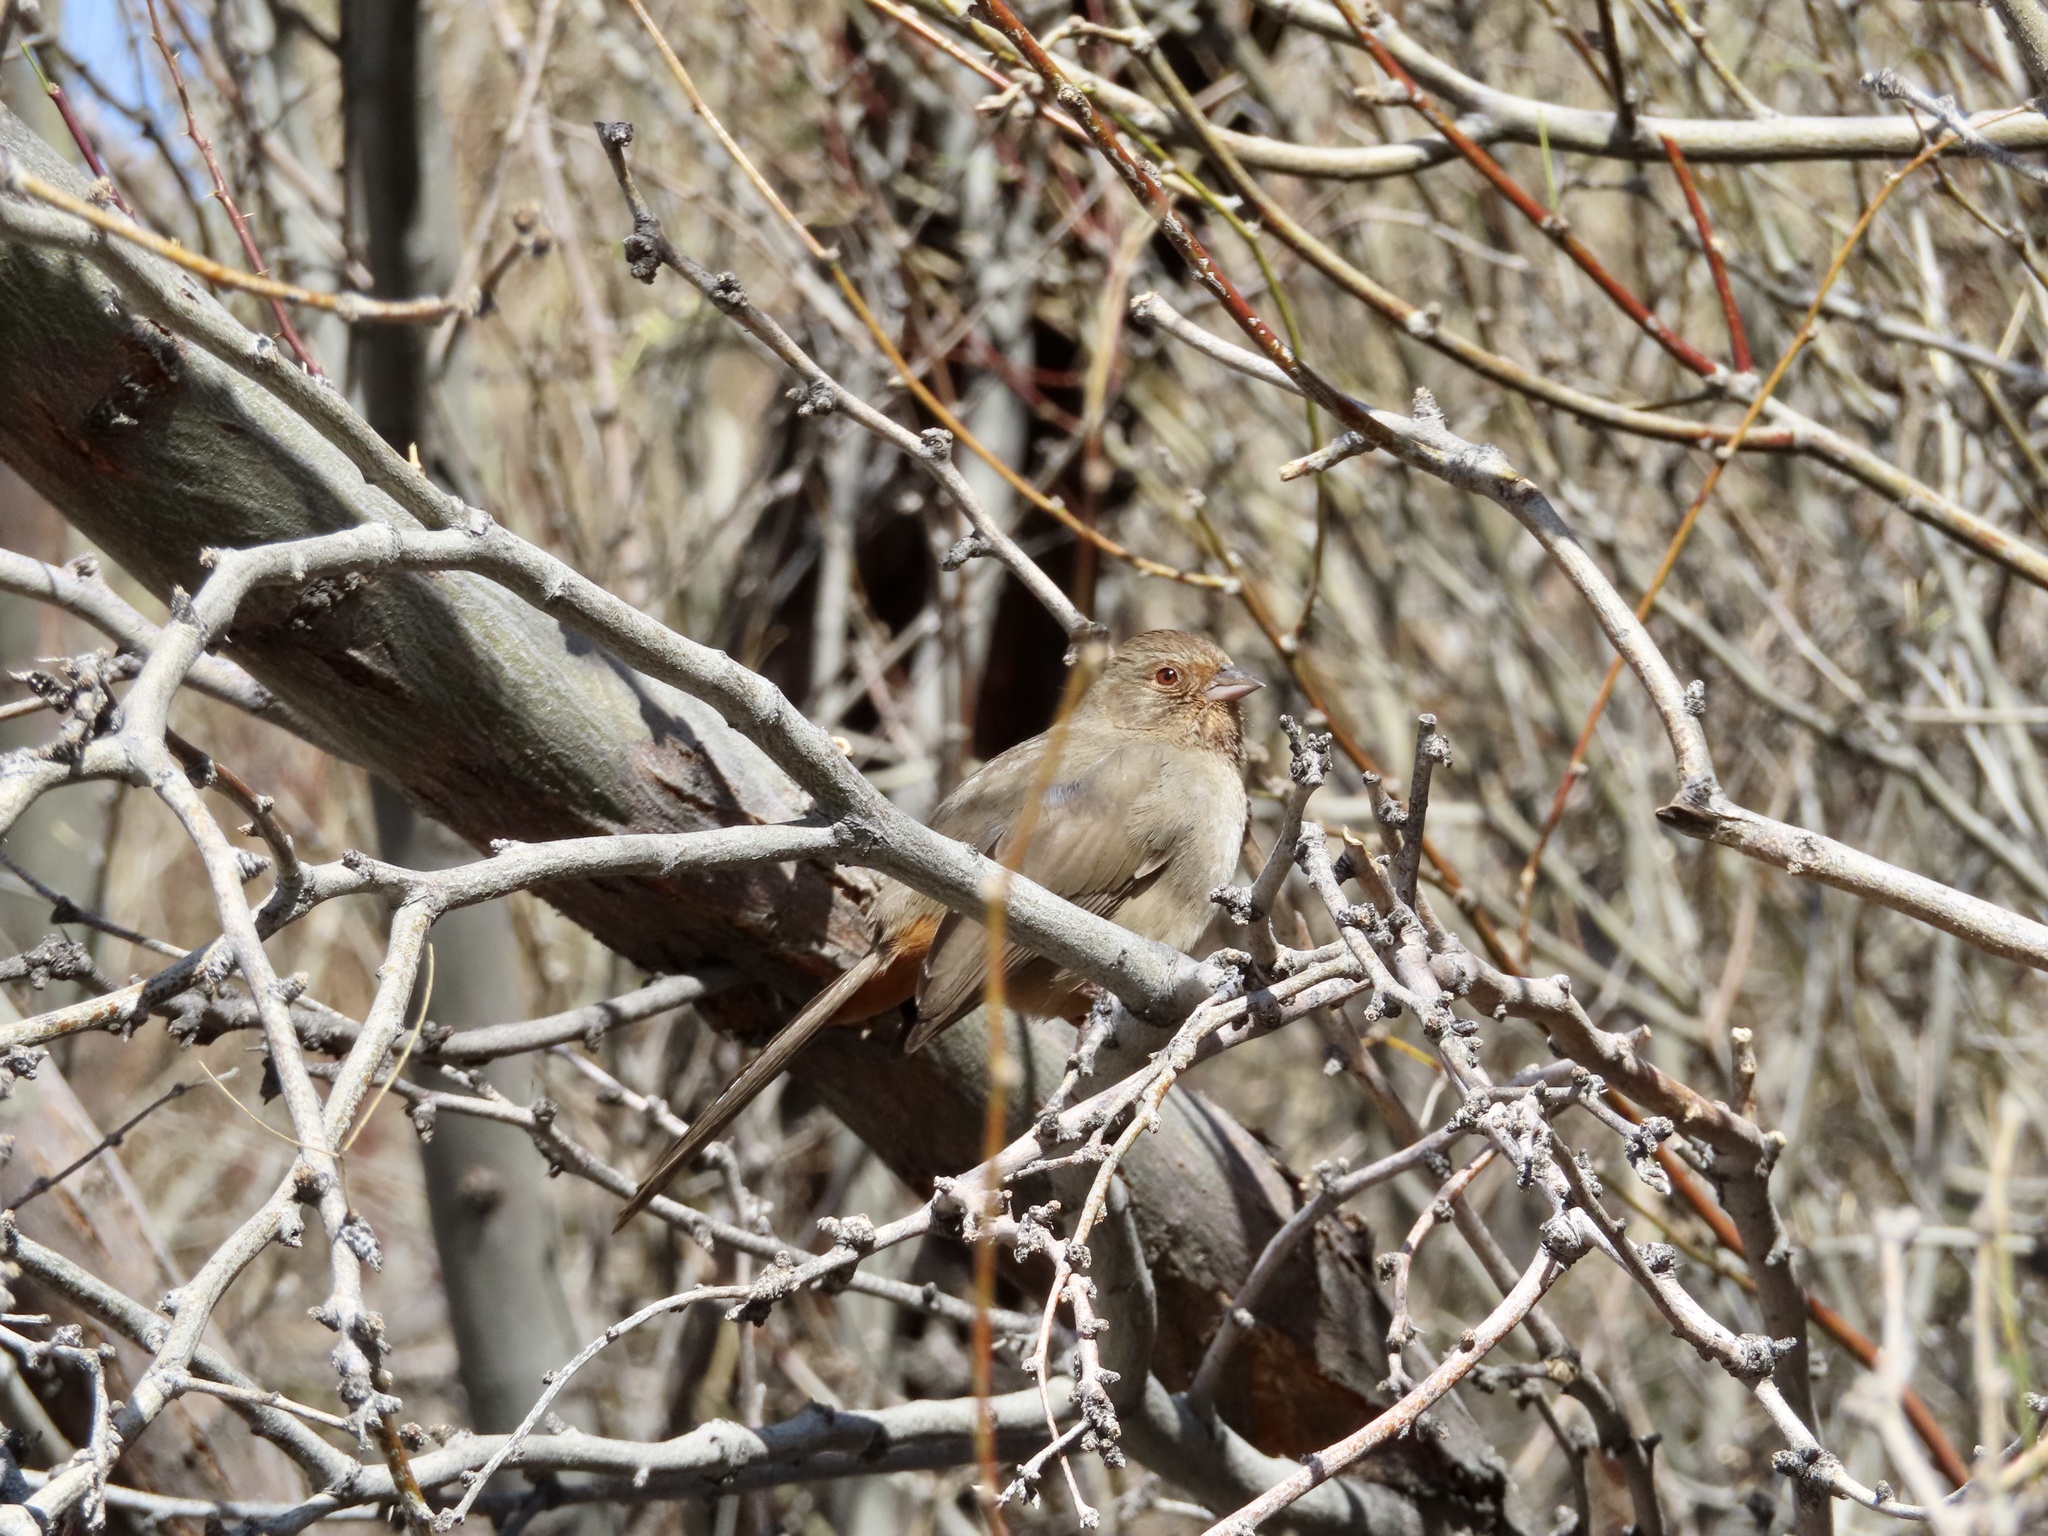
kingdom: Animalia
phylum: Chordata
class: Aves
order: Passeriformes
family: Passerellidae
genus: Melozone
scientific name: Melozone crissalis
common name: California towhee
